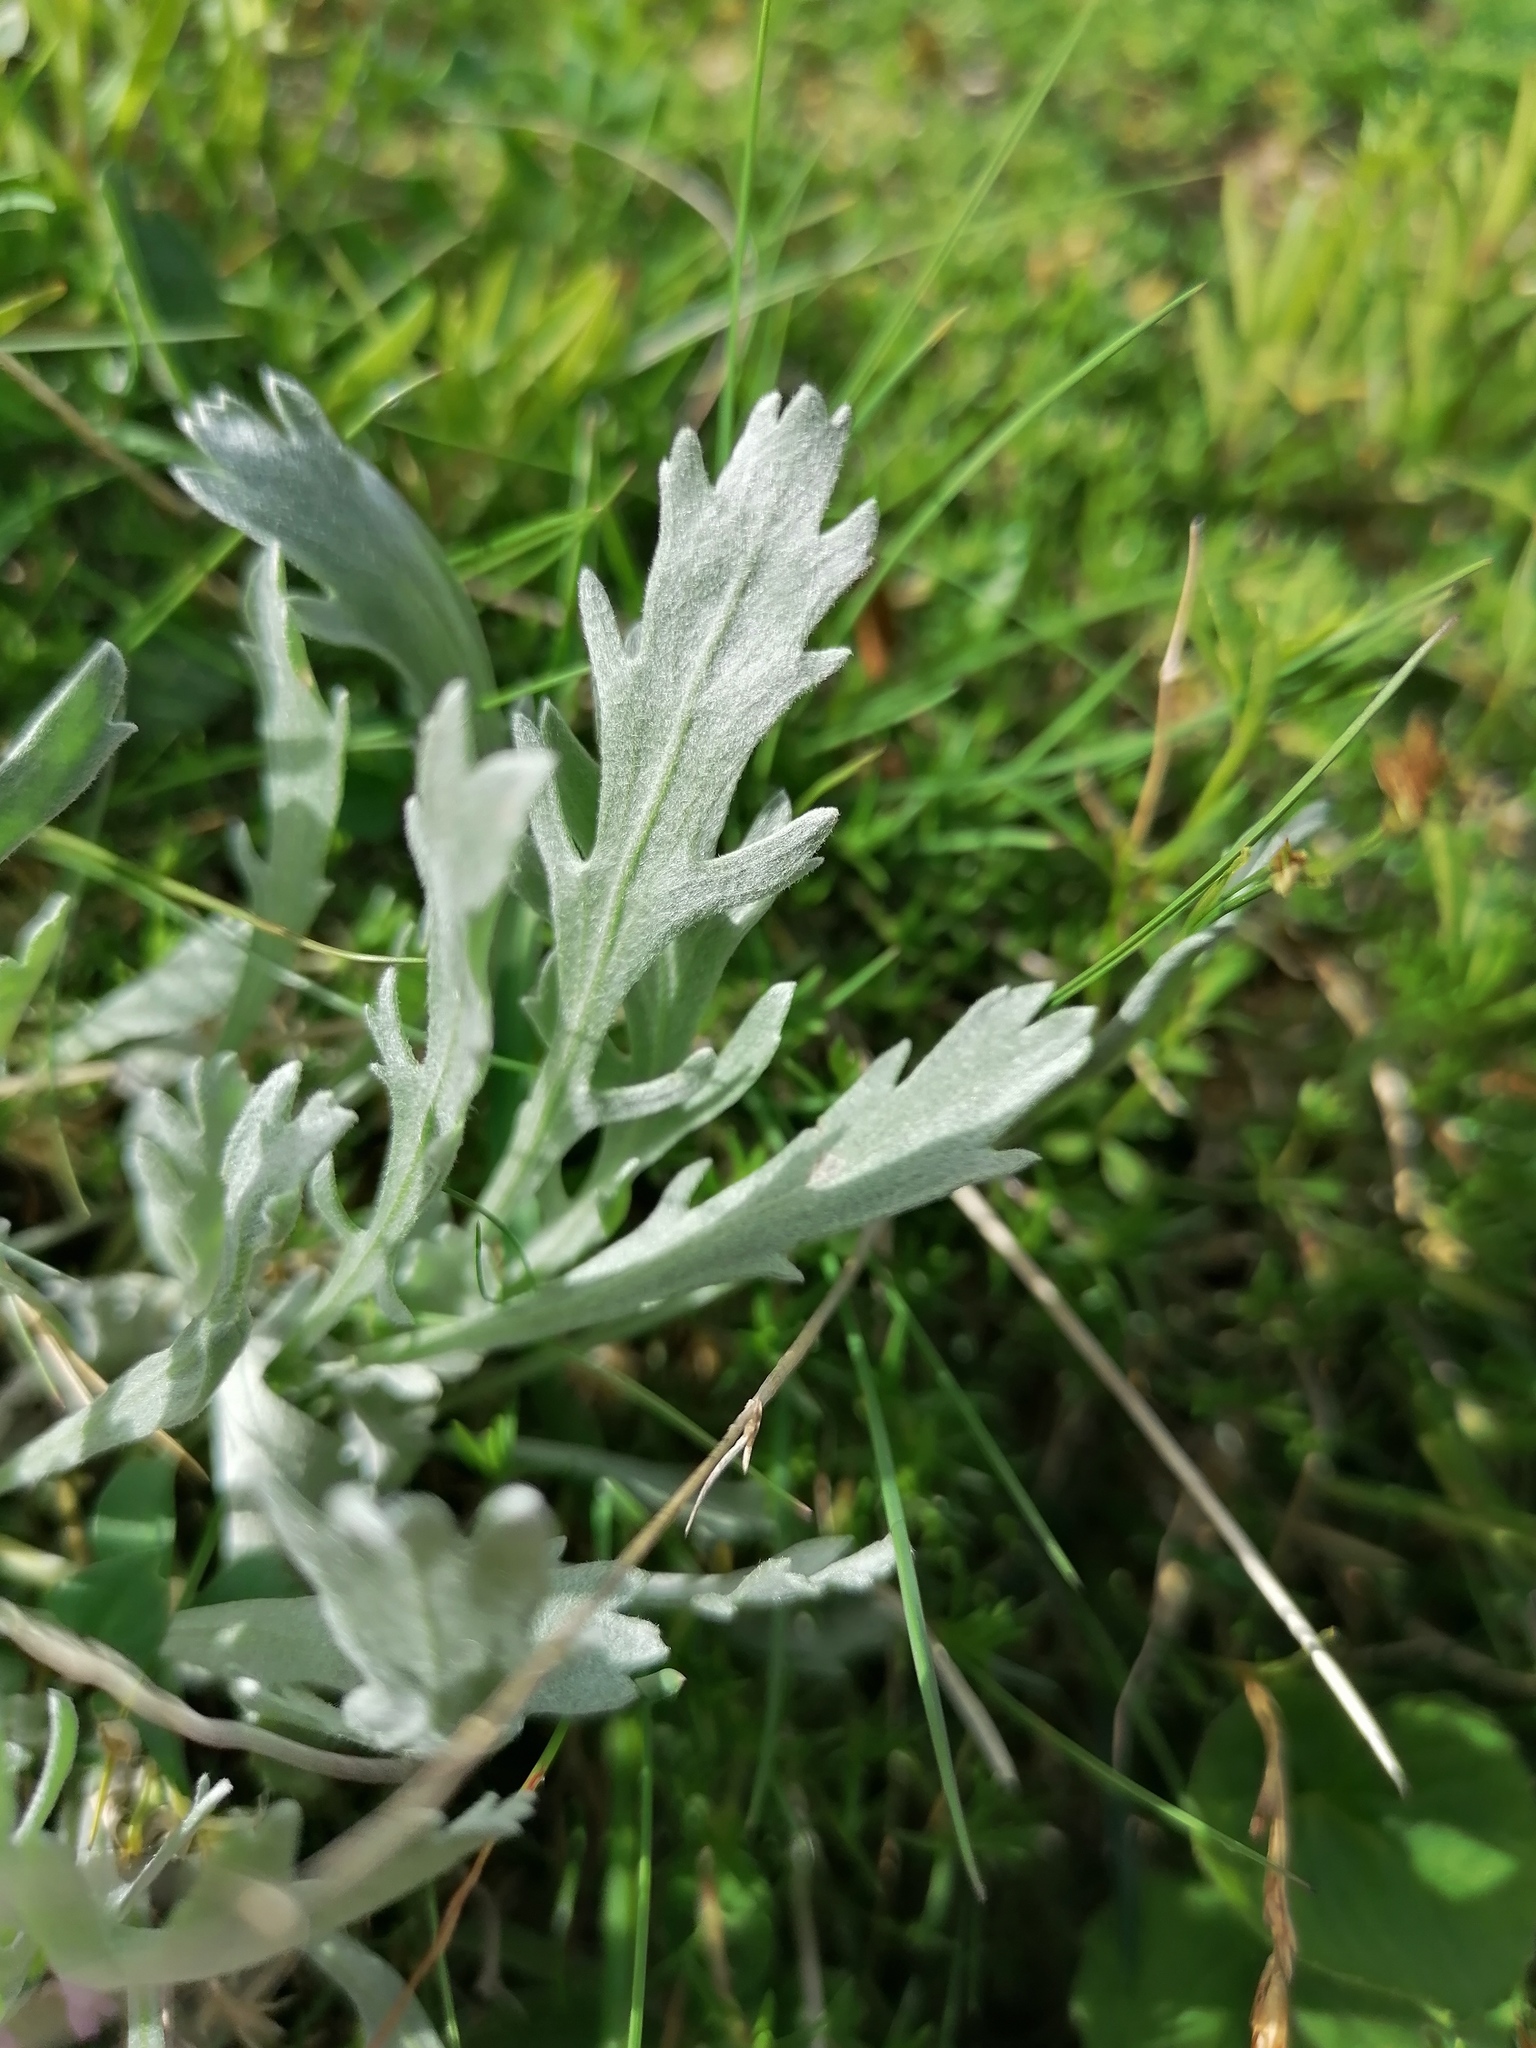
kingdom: Plantae
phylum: Tracheophyta
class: Magnoliopsida
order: Asterales
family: Asteraceae
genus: Achillea
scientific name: Achillea clavennae
